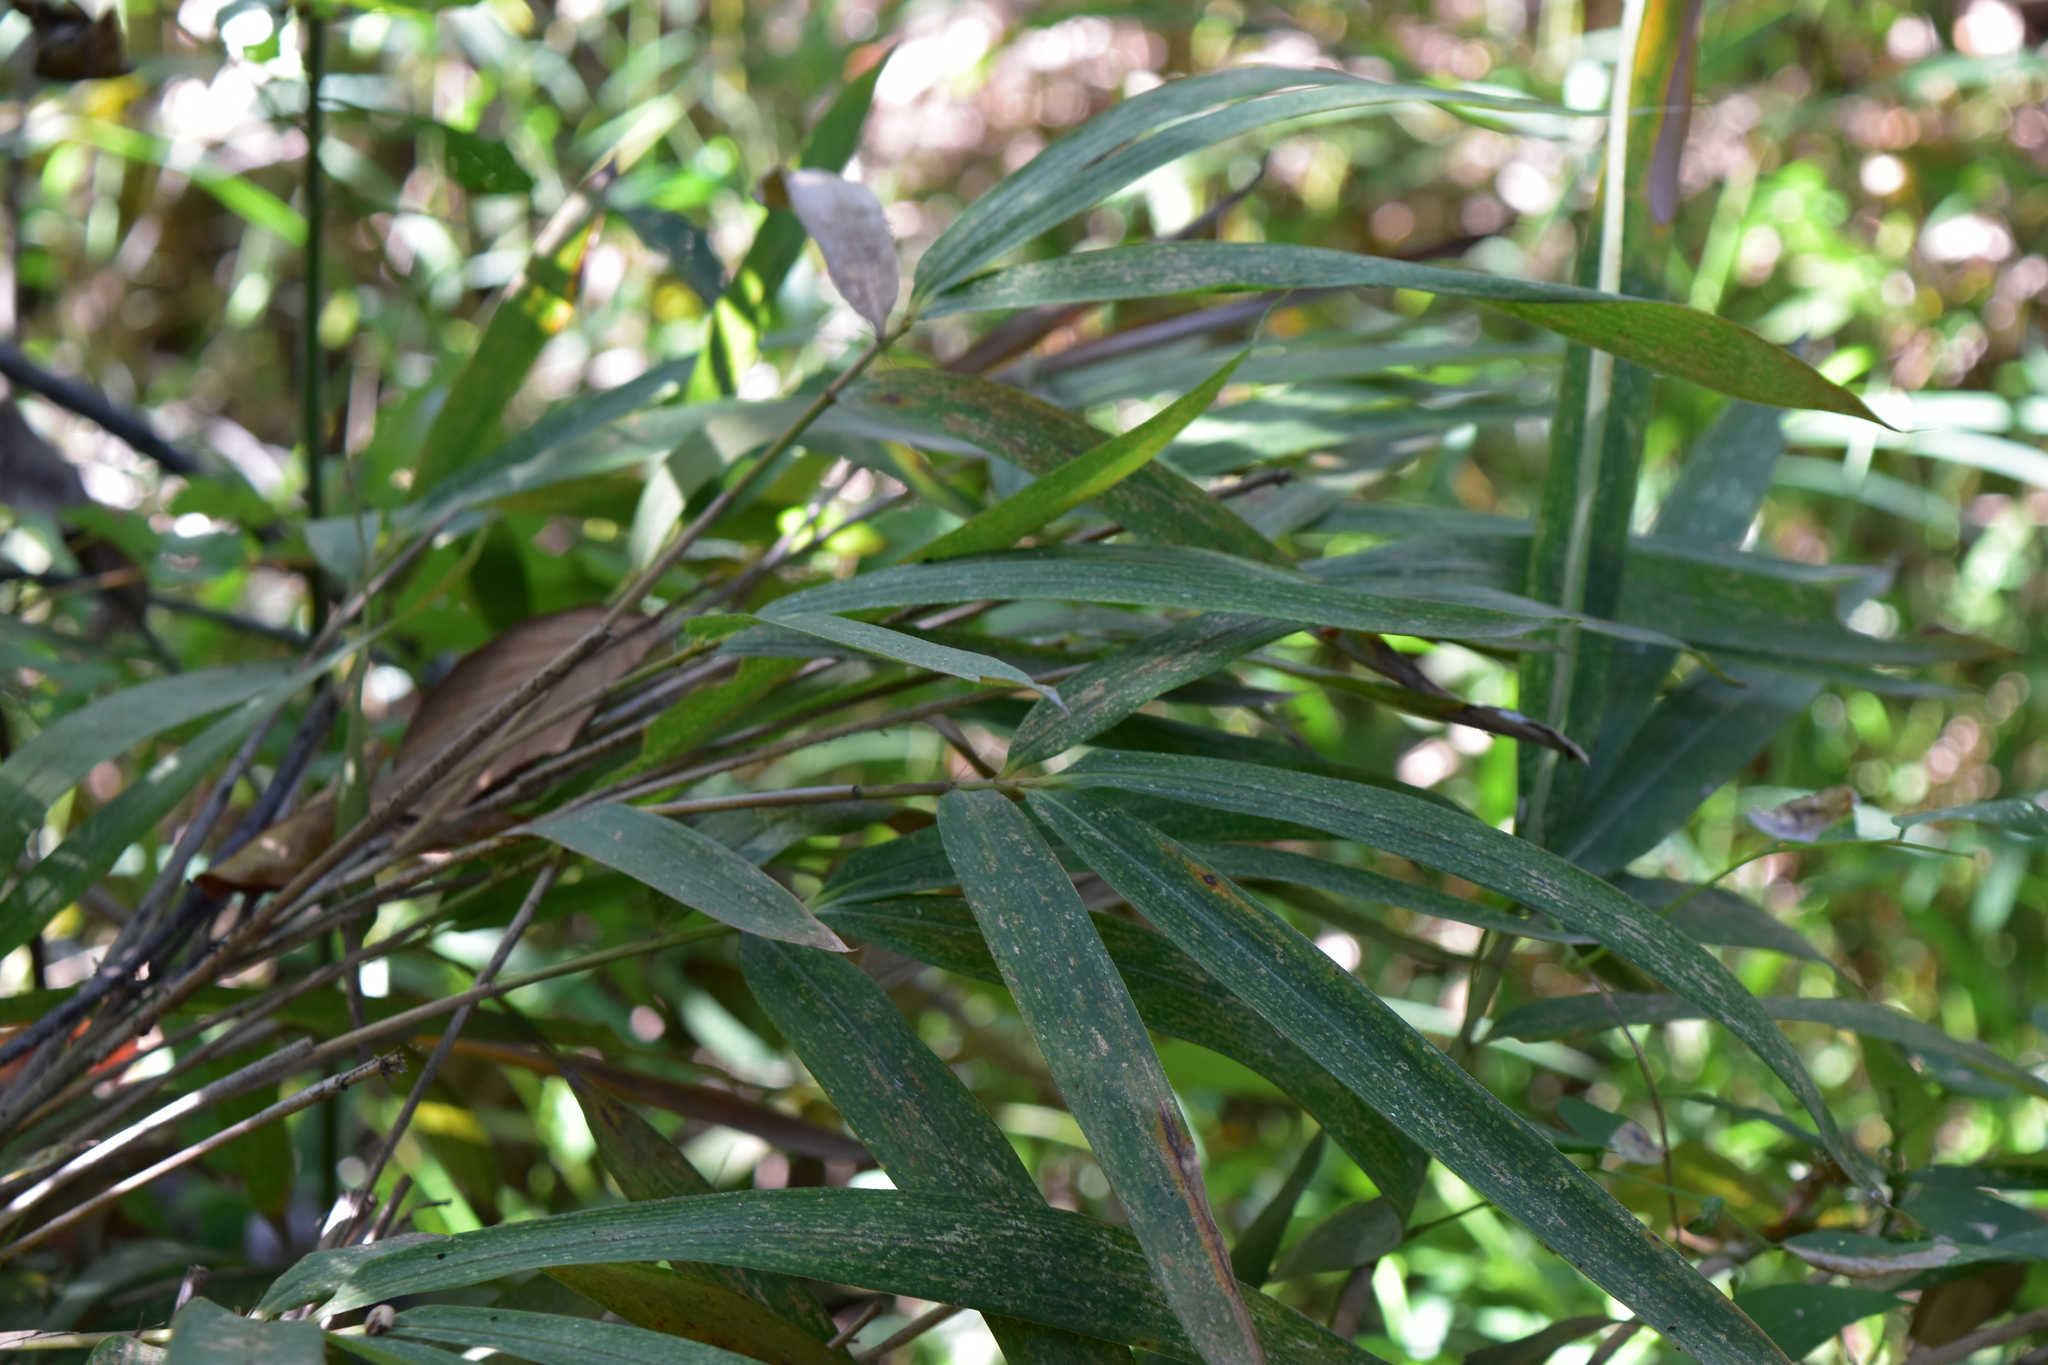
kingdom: Plantae
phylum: Tracheophyta
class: Liliopsida
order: Poales
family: Poaceae
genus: Arundinaria
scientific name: Arundinaria gigantea
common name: Giant cane
